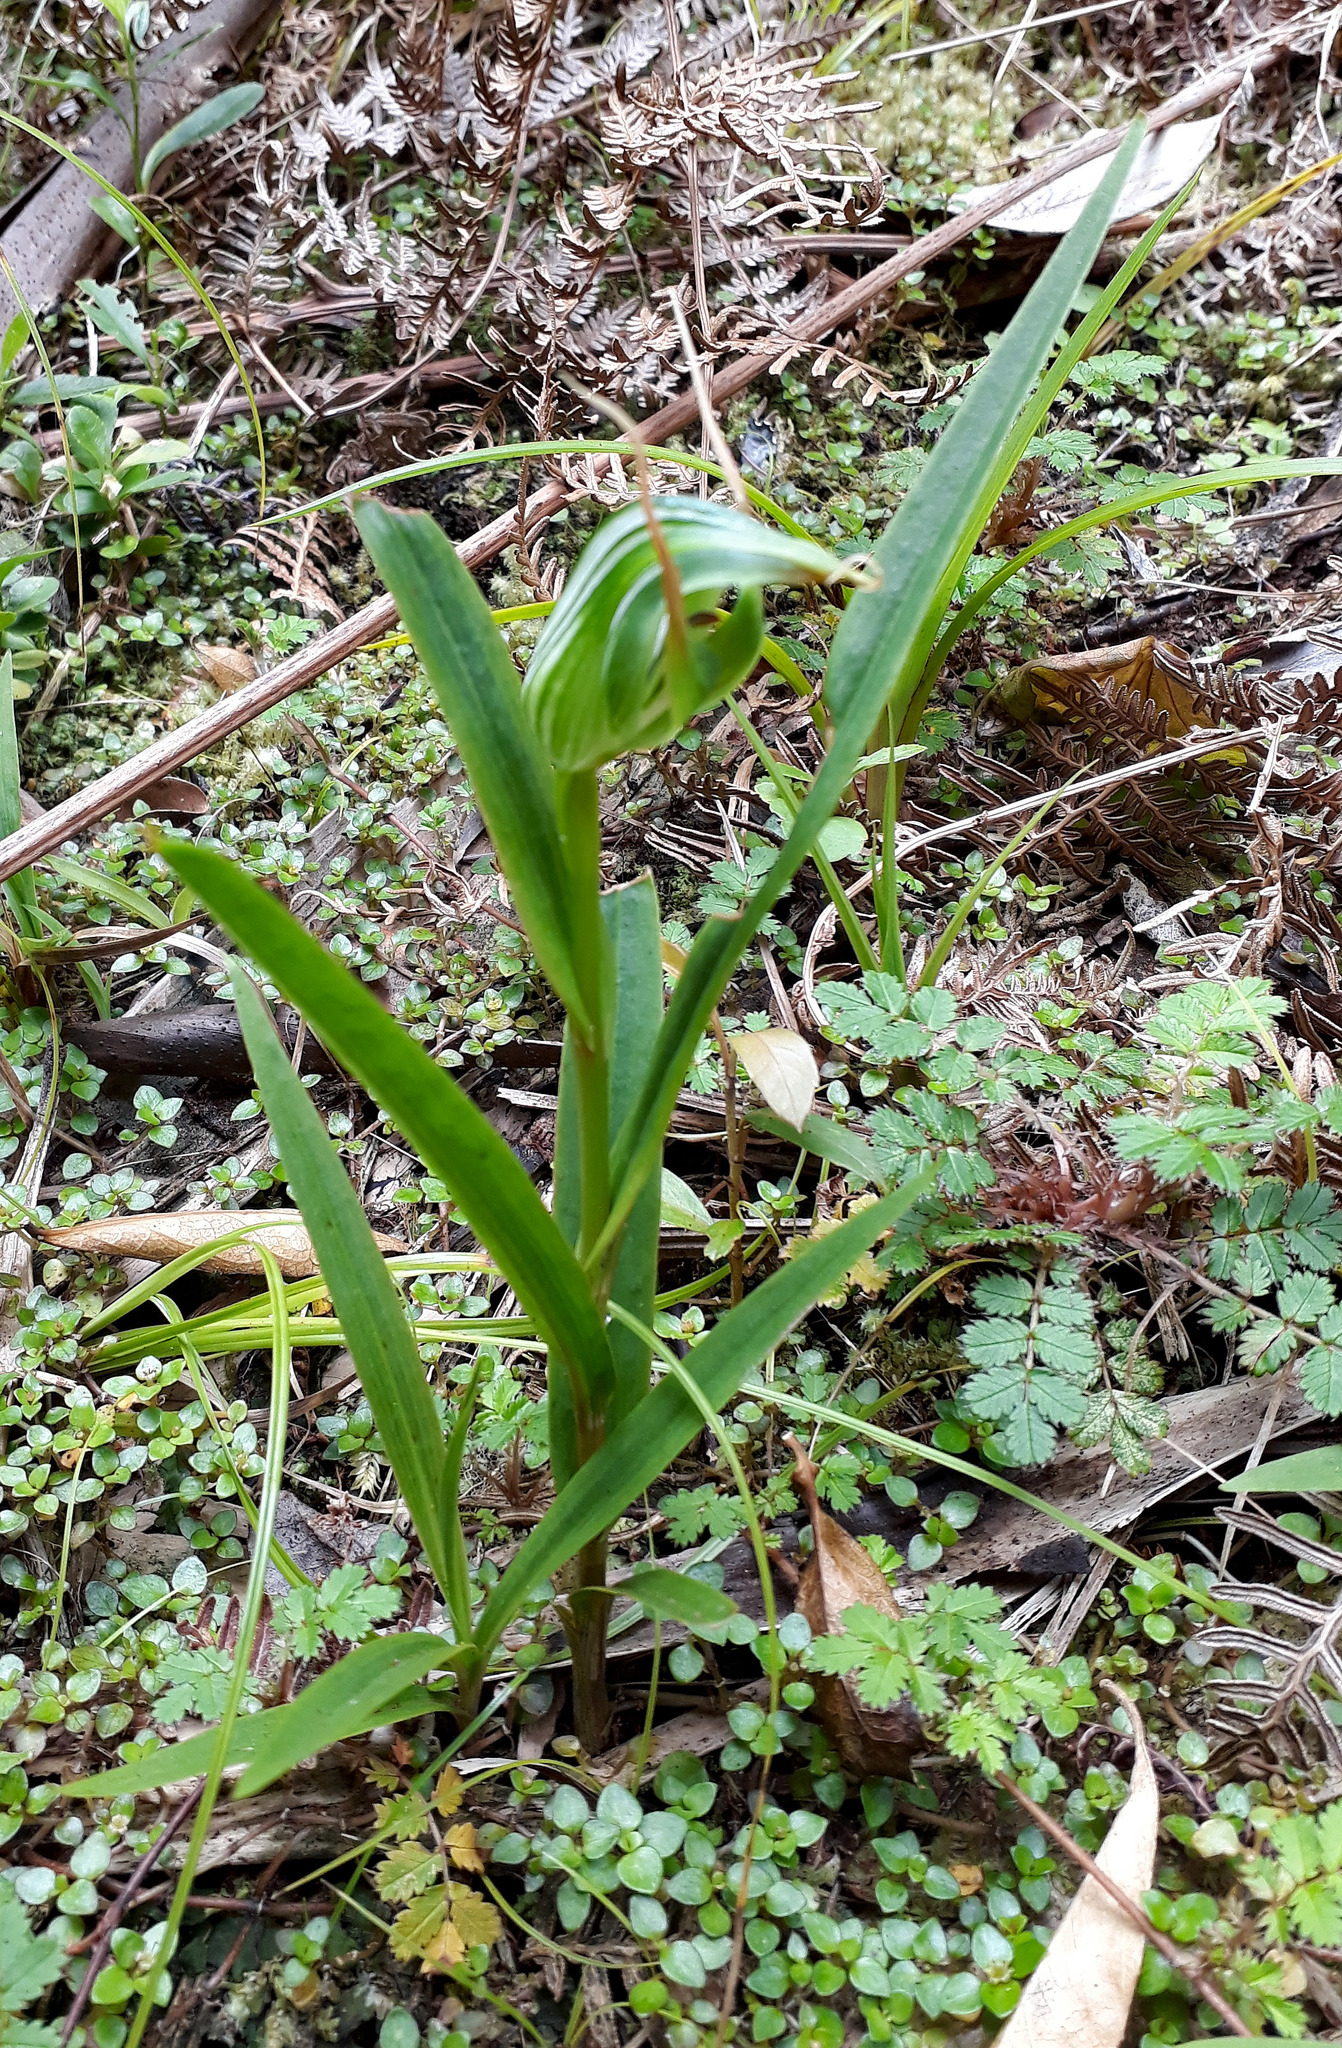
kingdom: Plantae
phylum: Tracheophyta
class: Liliopsida
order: Asparagales
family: Orchidaceae
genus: Pterostylis
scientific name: Pterostylis banksii
